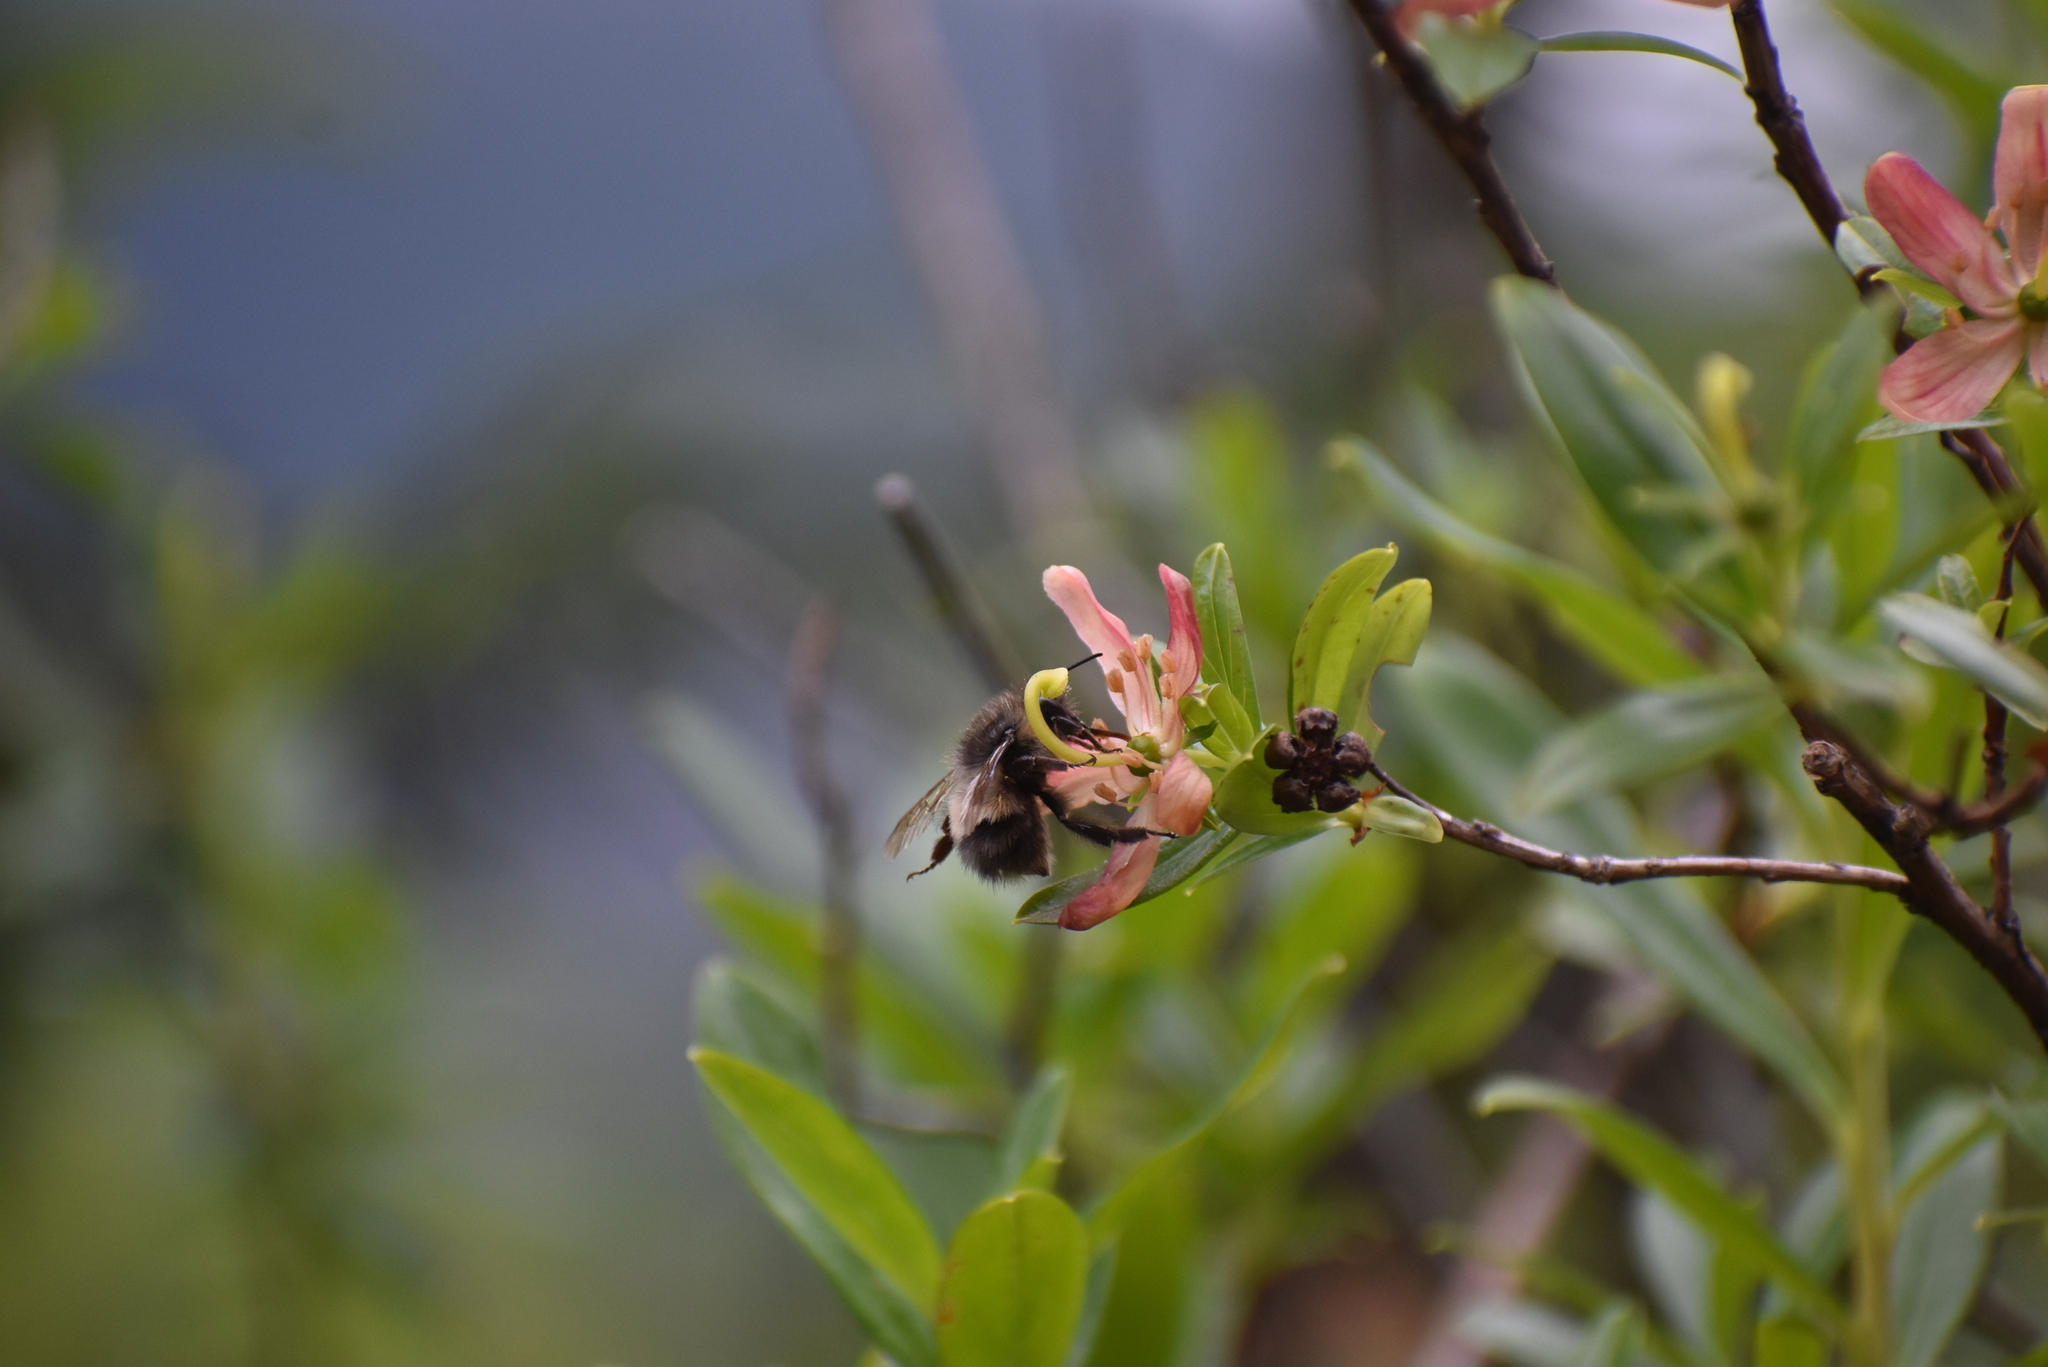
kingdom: Animalia
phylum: Arthropoda
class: Insecta
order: Hymenoptera
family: Apidae
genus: Bombus
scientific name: Bombus sitkensis
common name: Sitka bumble bee
